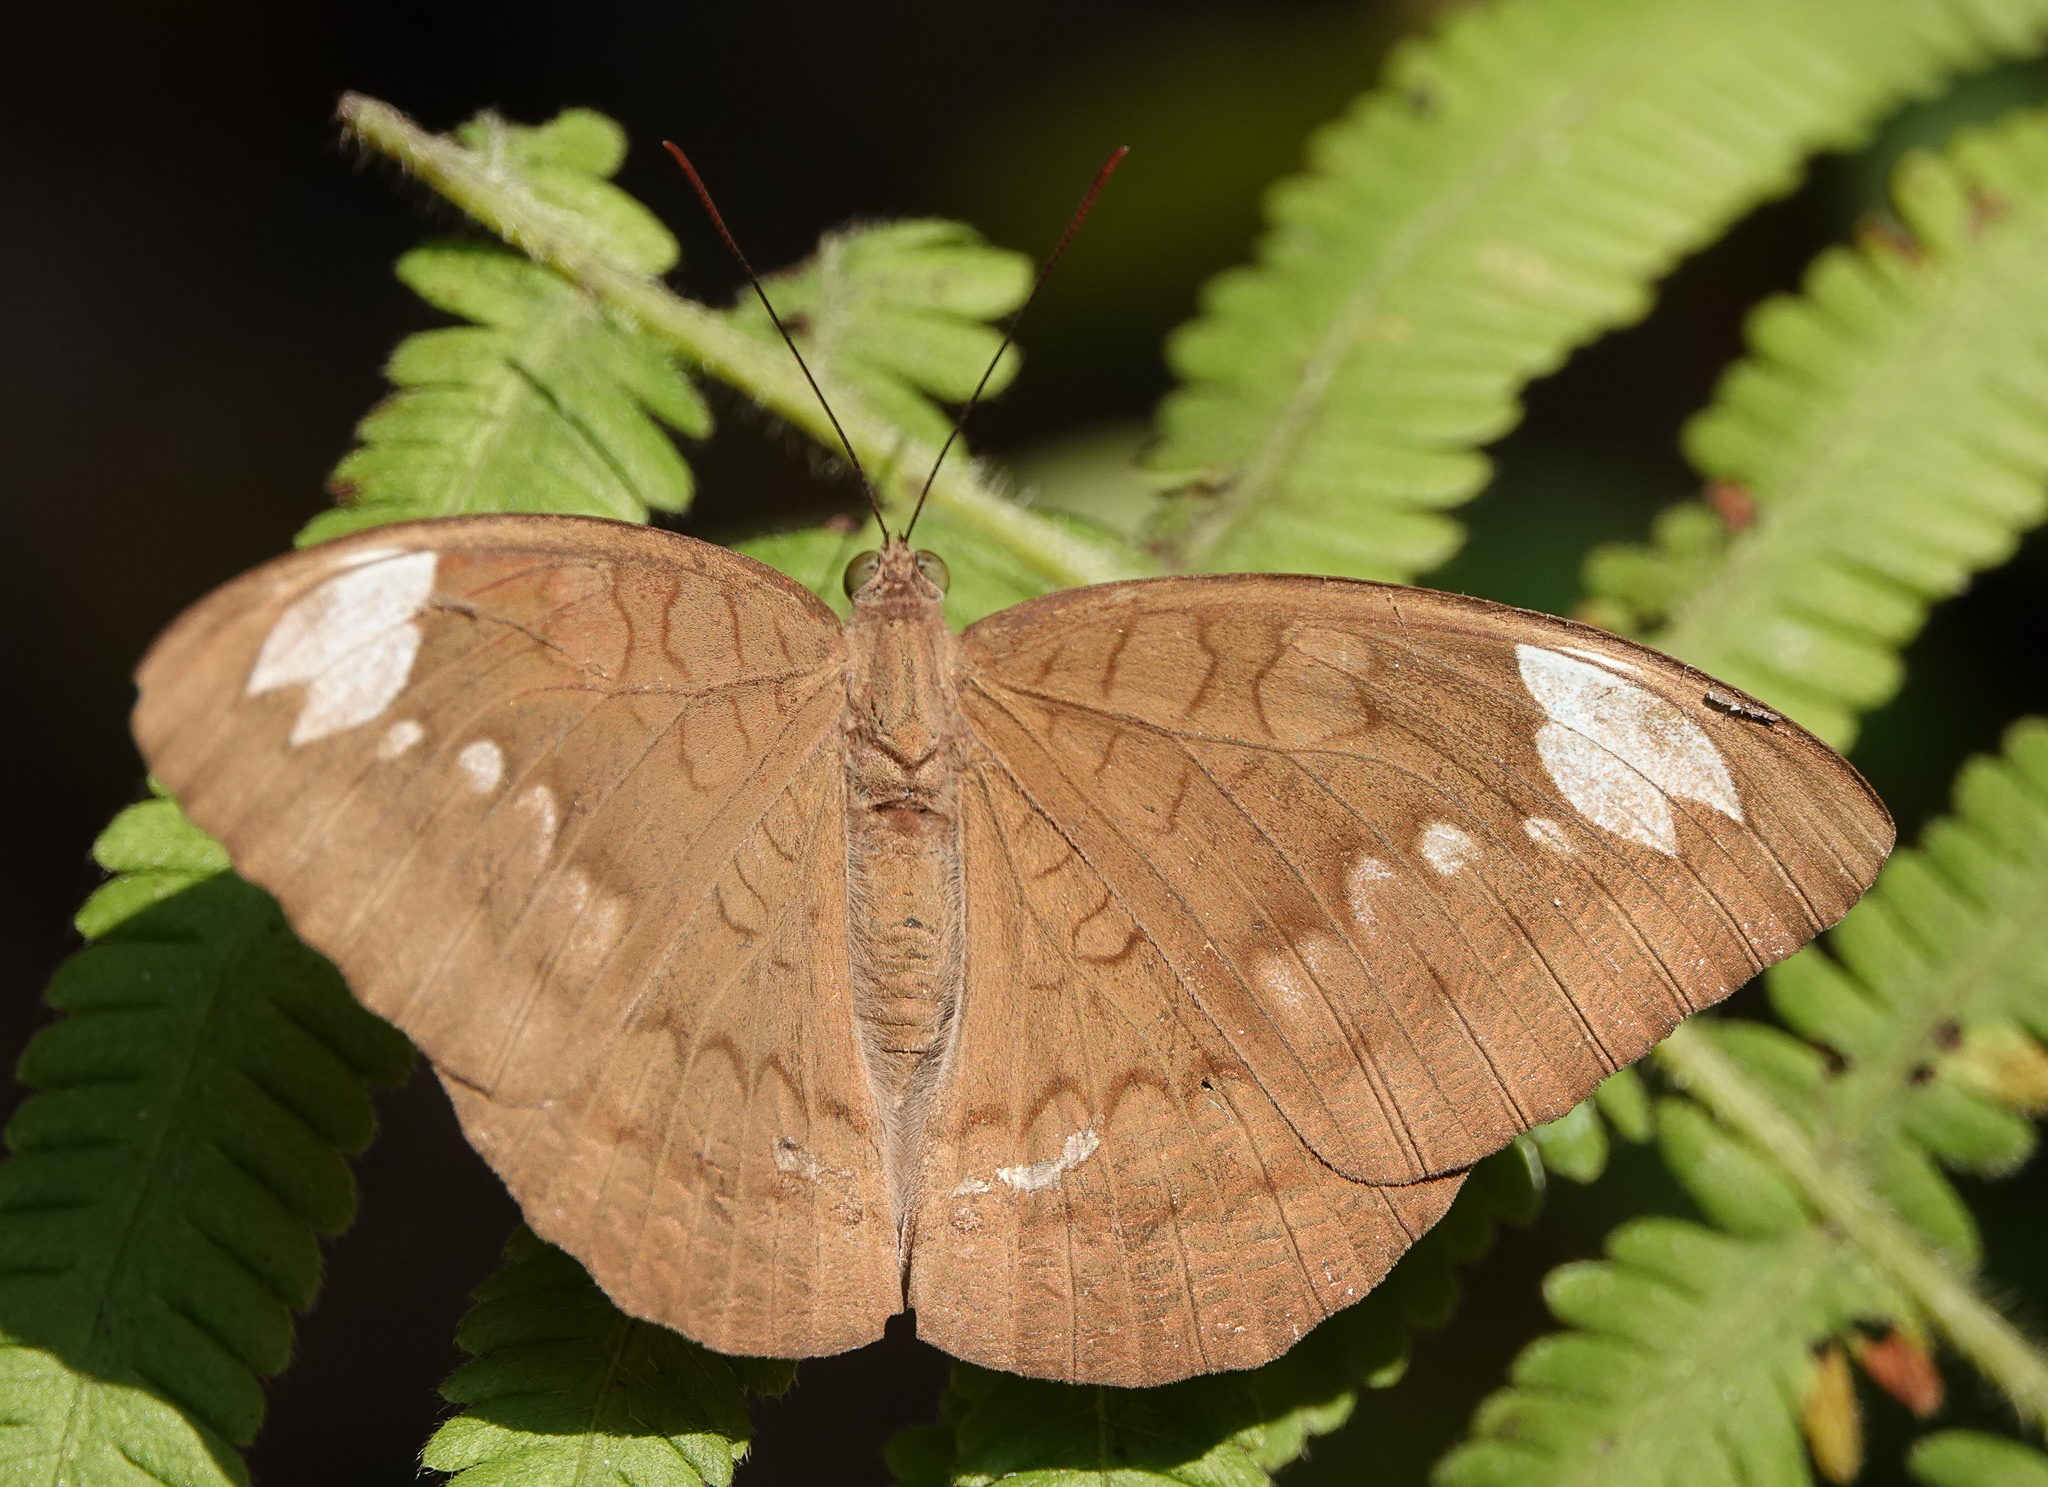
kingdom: Animalia
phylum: Arthropoda
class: Insecta
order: Lepidoptera
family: Nymphalidae
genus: Euthalia
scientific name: Euthalia aconthea
